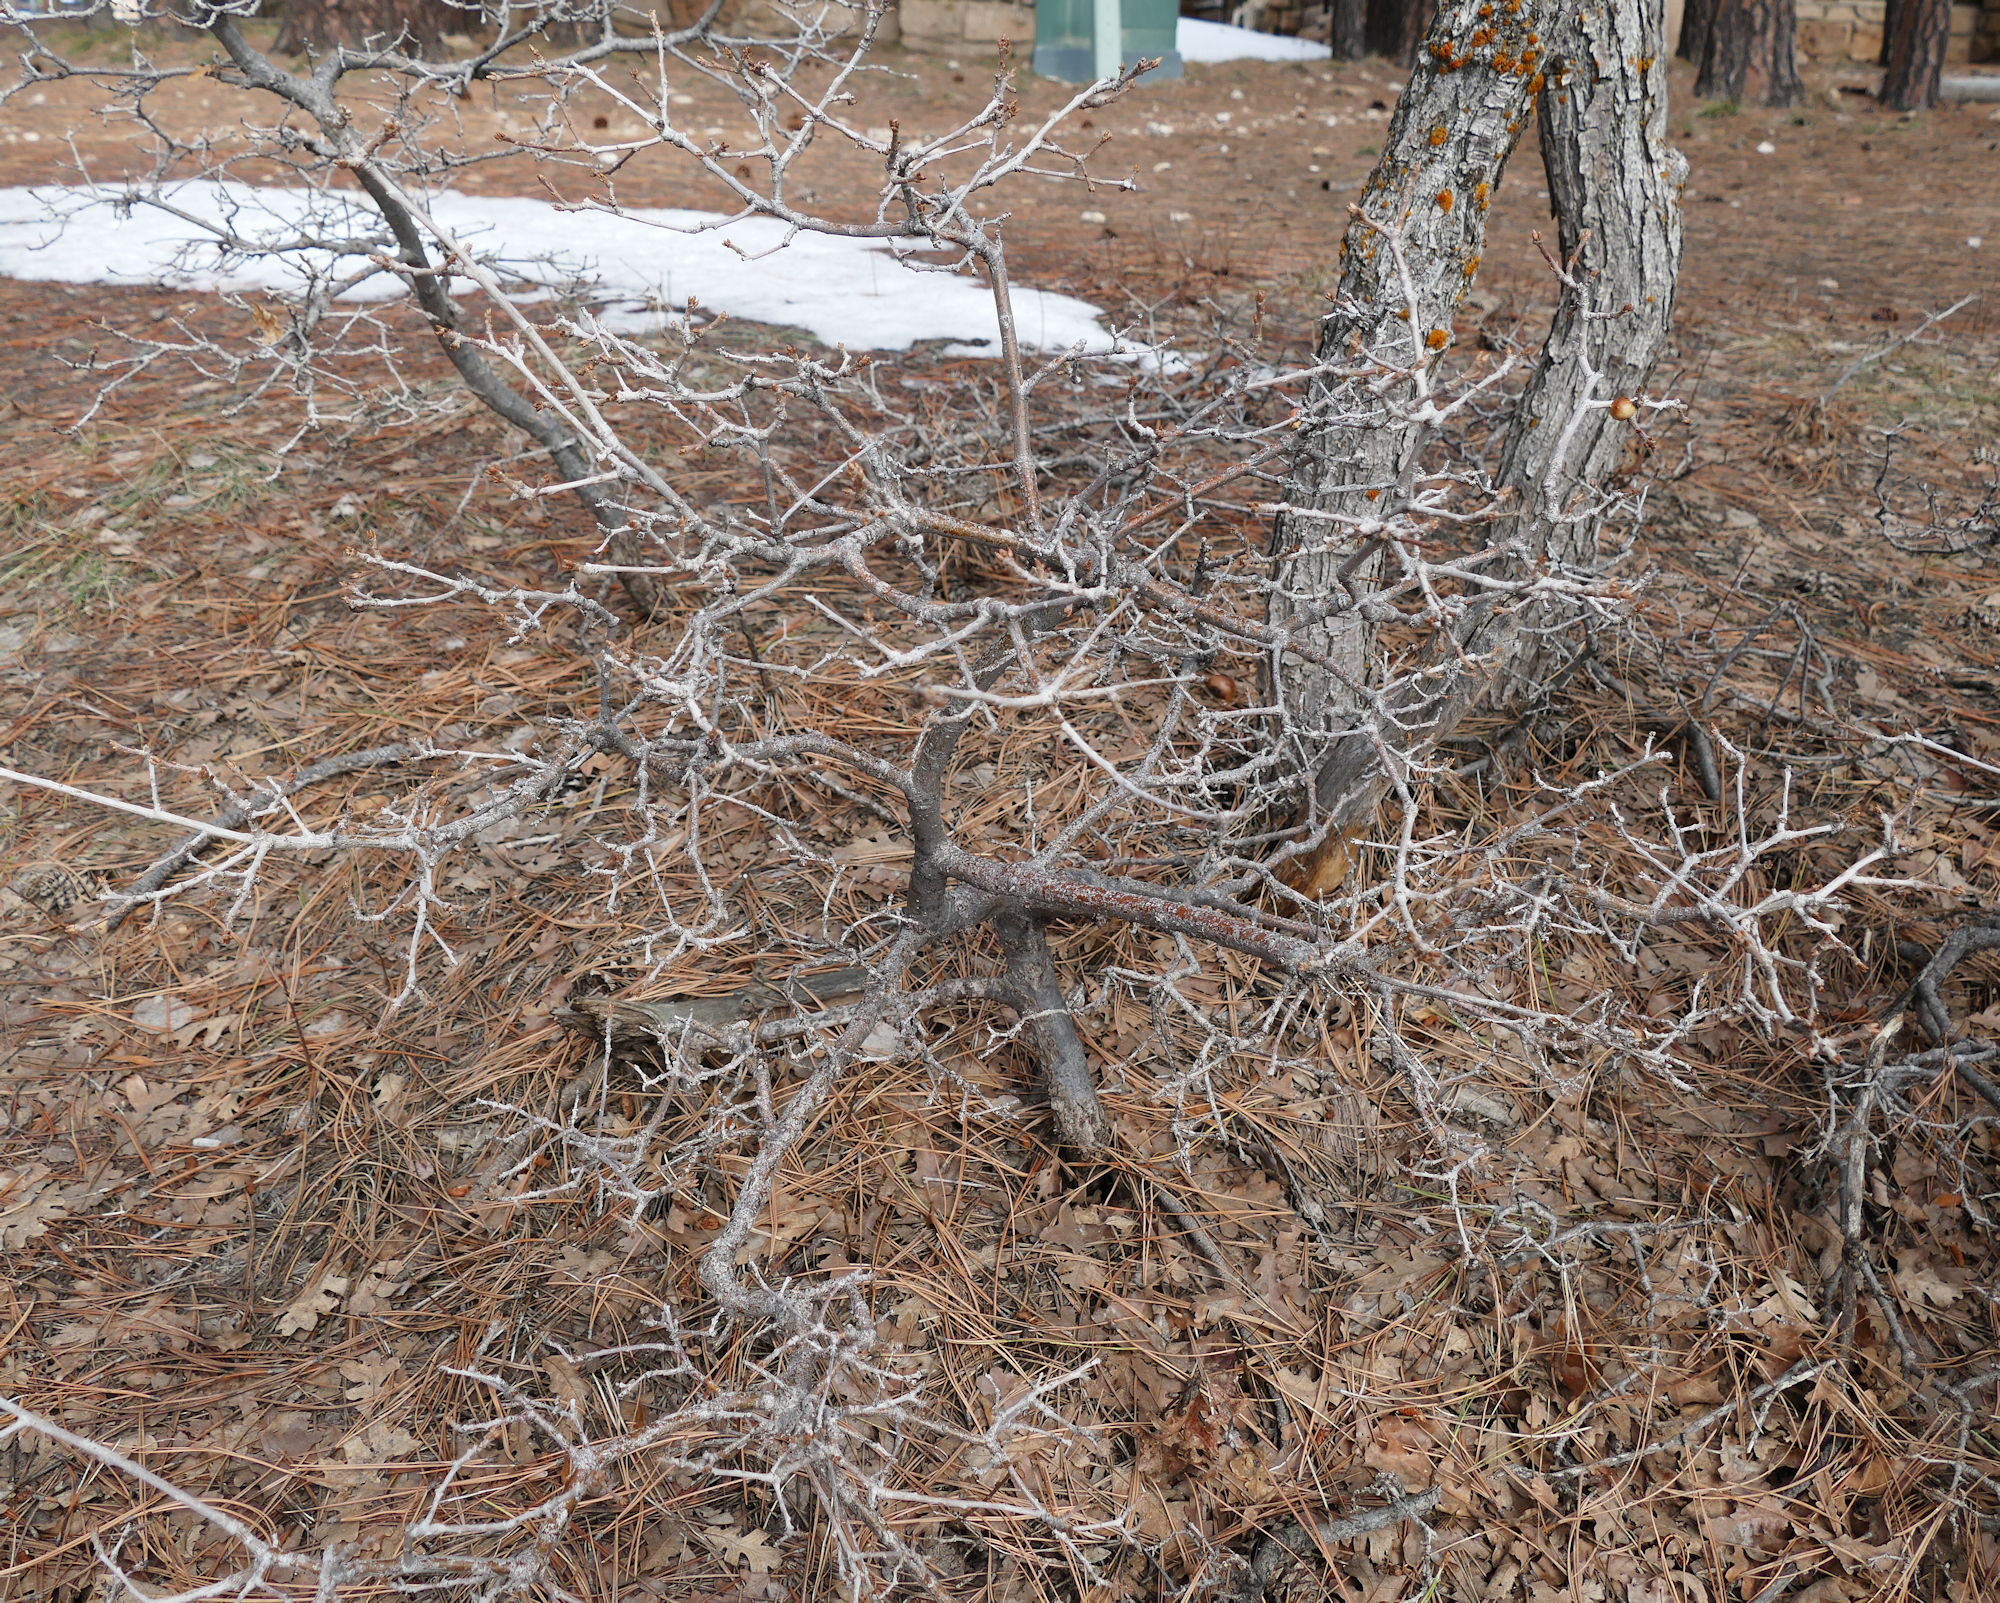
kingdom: Plantae
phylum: Tracheophyta
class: Magnoliopsida
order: Fagales
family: Fagaceae
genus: Quercus
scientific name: Quercus gambelii
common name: Gambel oak
